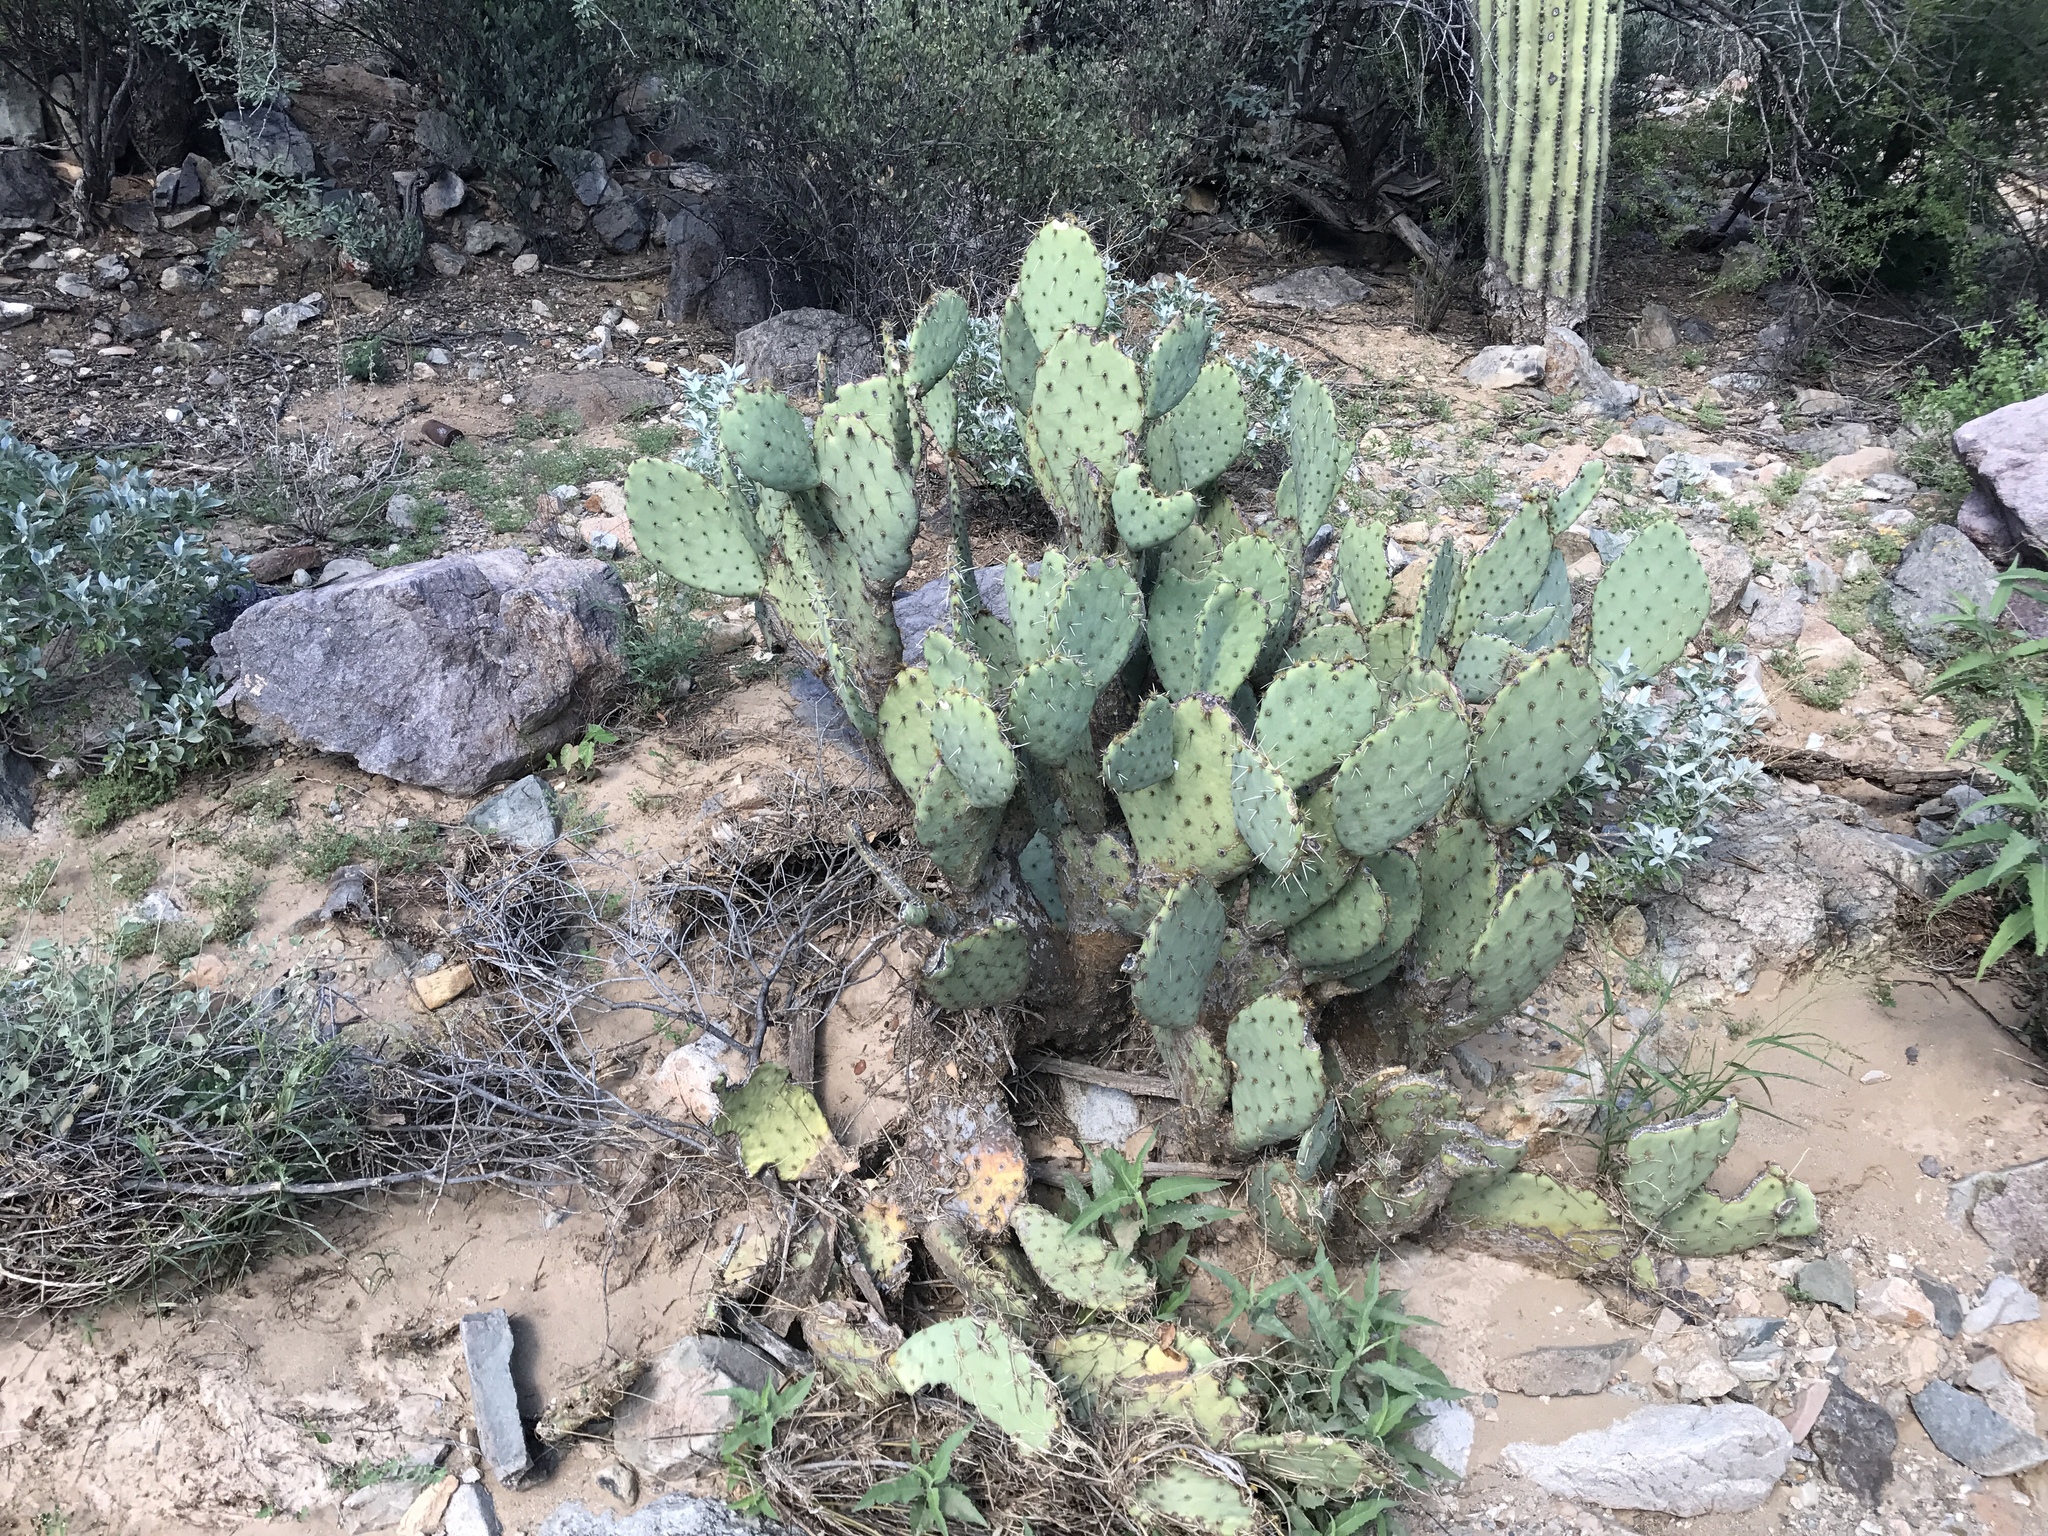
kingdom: Plantae
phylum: Tracheophyta
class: Magnoliopsida
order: Caryophyllales
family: Cactaceae
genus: Opuntia
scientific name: Opuntia engelmannii
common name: Cactus-apple
